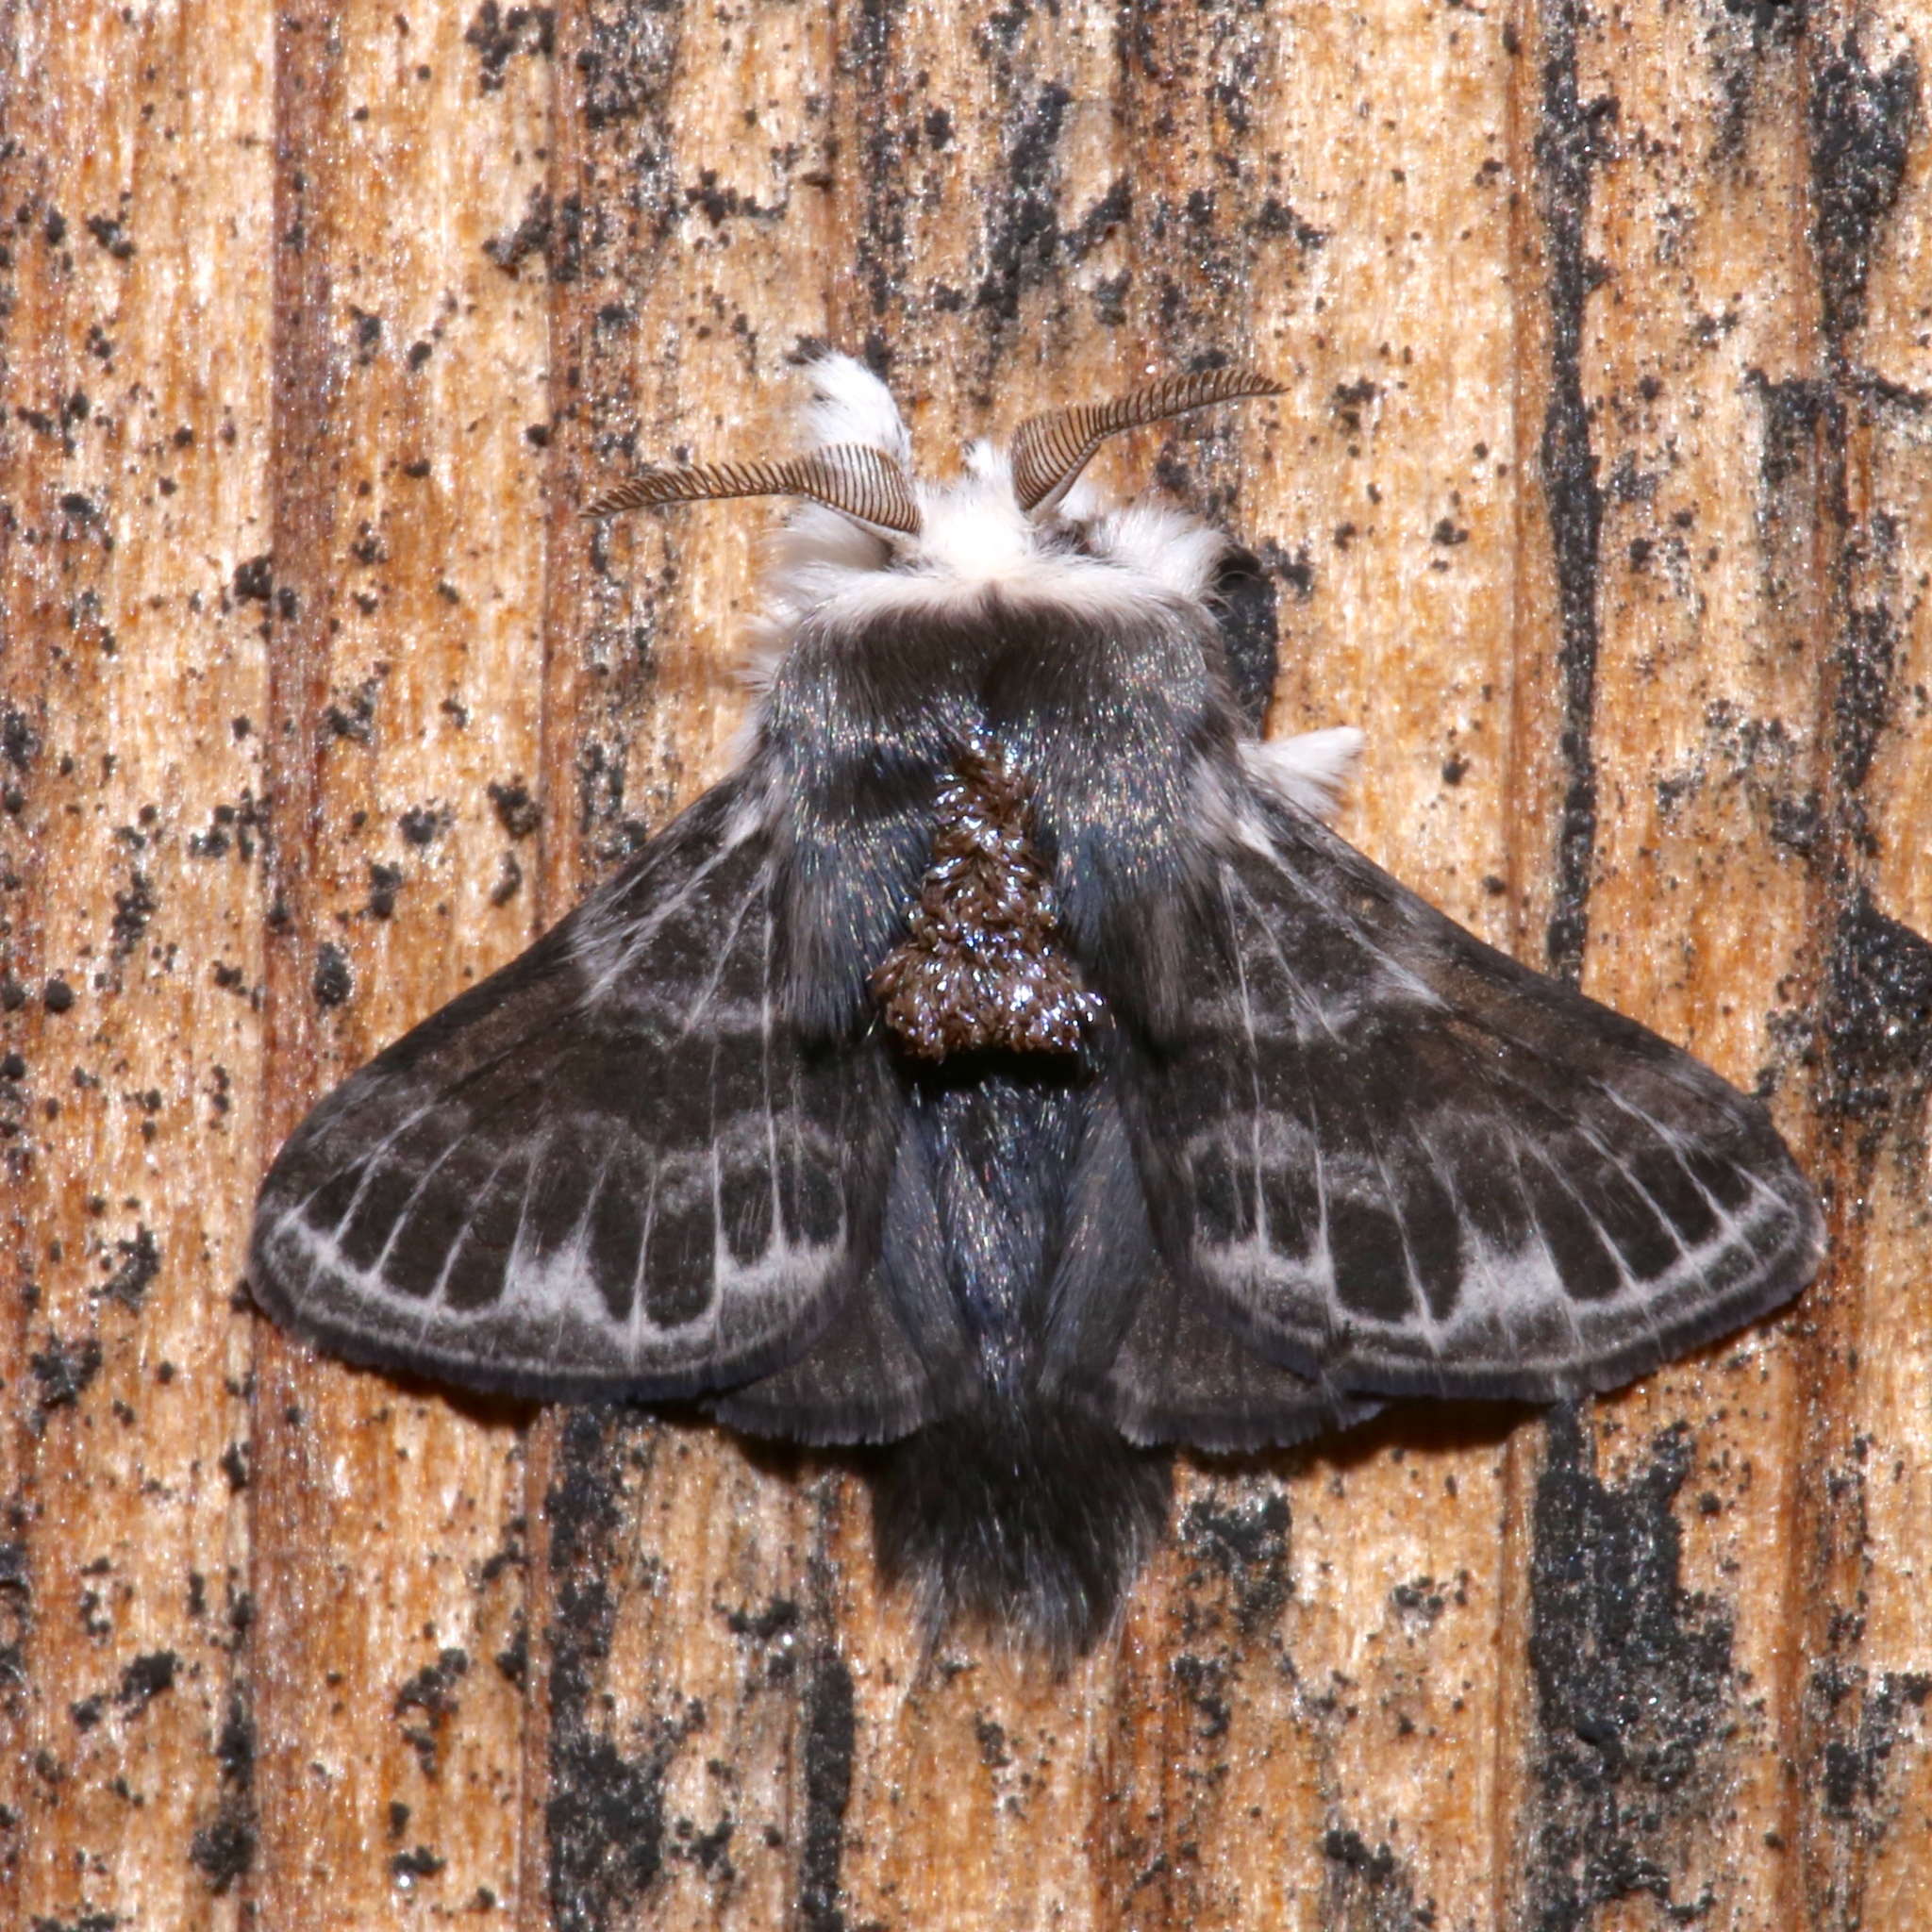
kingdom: Animalia
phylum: Arthropoda
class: Insecta
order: Lepidoptera
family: Lasiocampidae
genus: Tolype
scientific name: Tolype laricis
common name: Larch tolype moth
